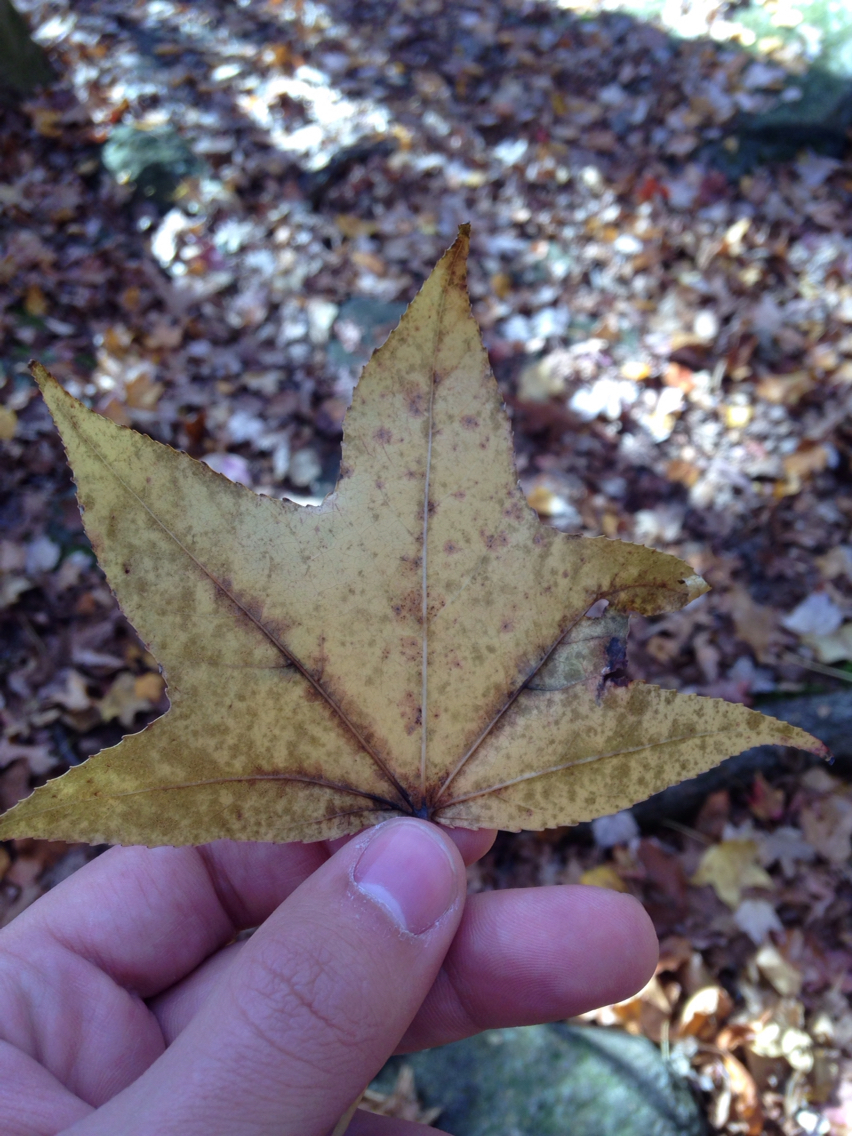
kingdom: Plantae
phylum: Tracheophyta
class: Magnoliopsida
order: Saxifragales
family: Altingiaceae
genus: Liquidambar
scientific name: Liquidambar styraciflua
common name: Sweet gum
